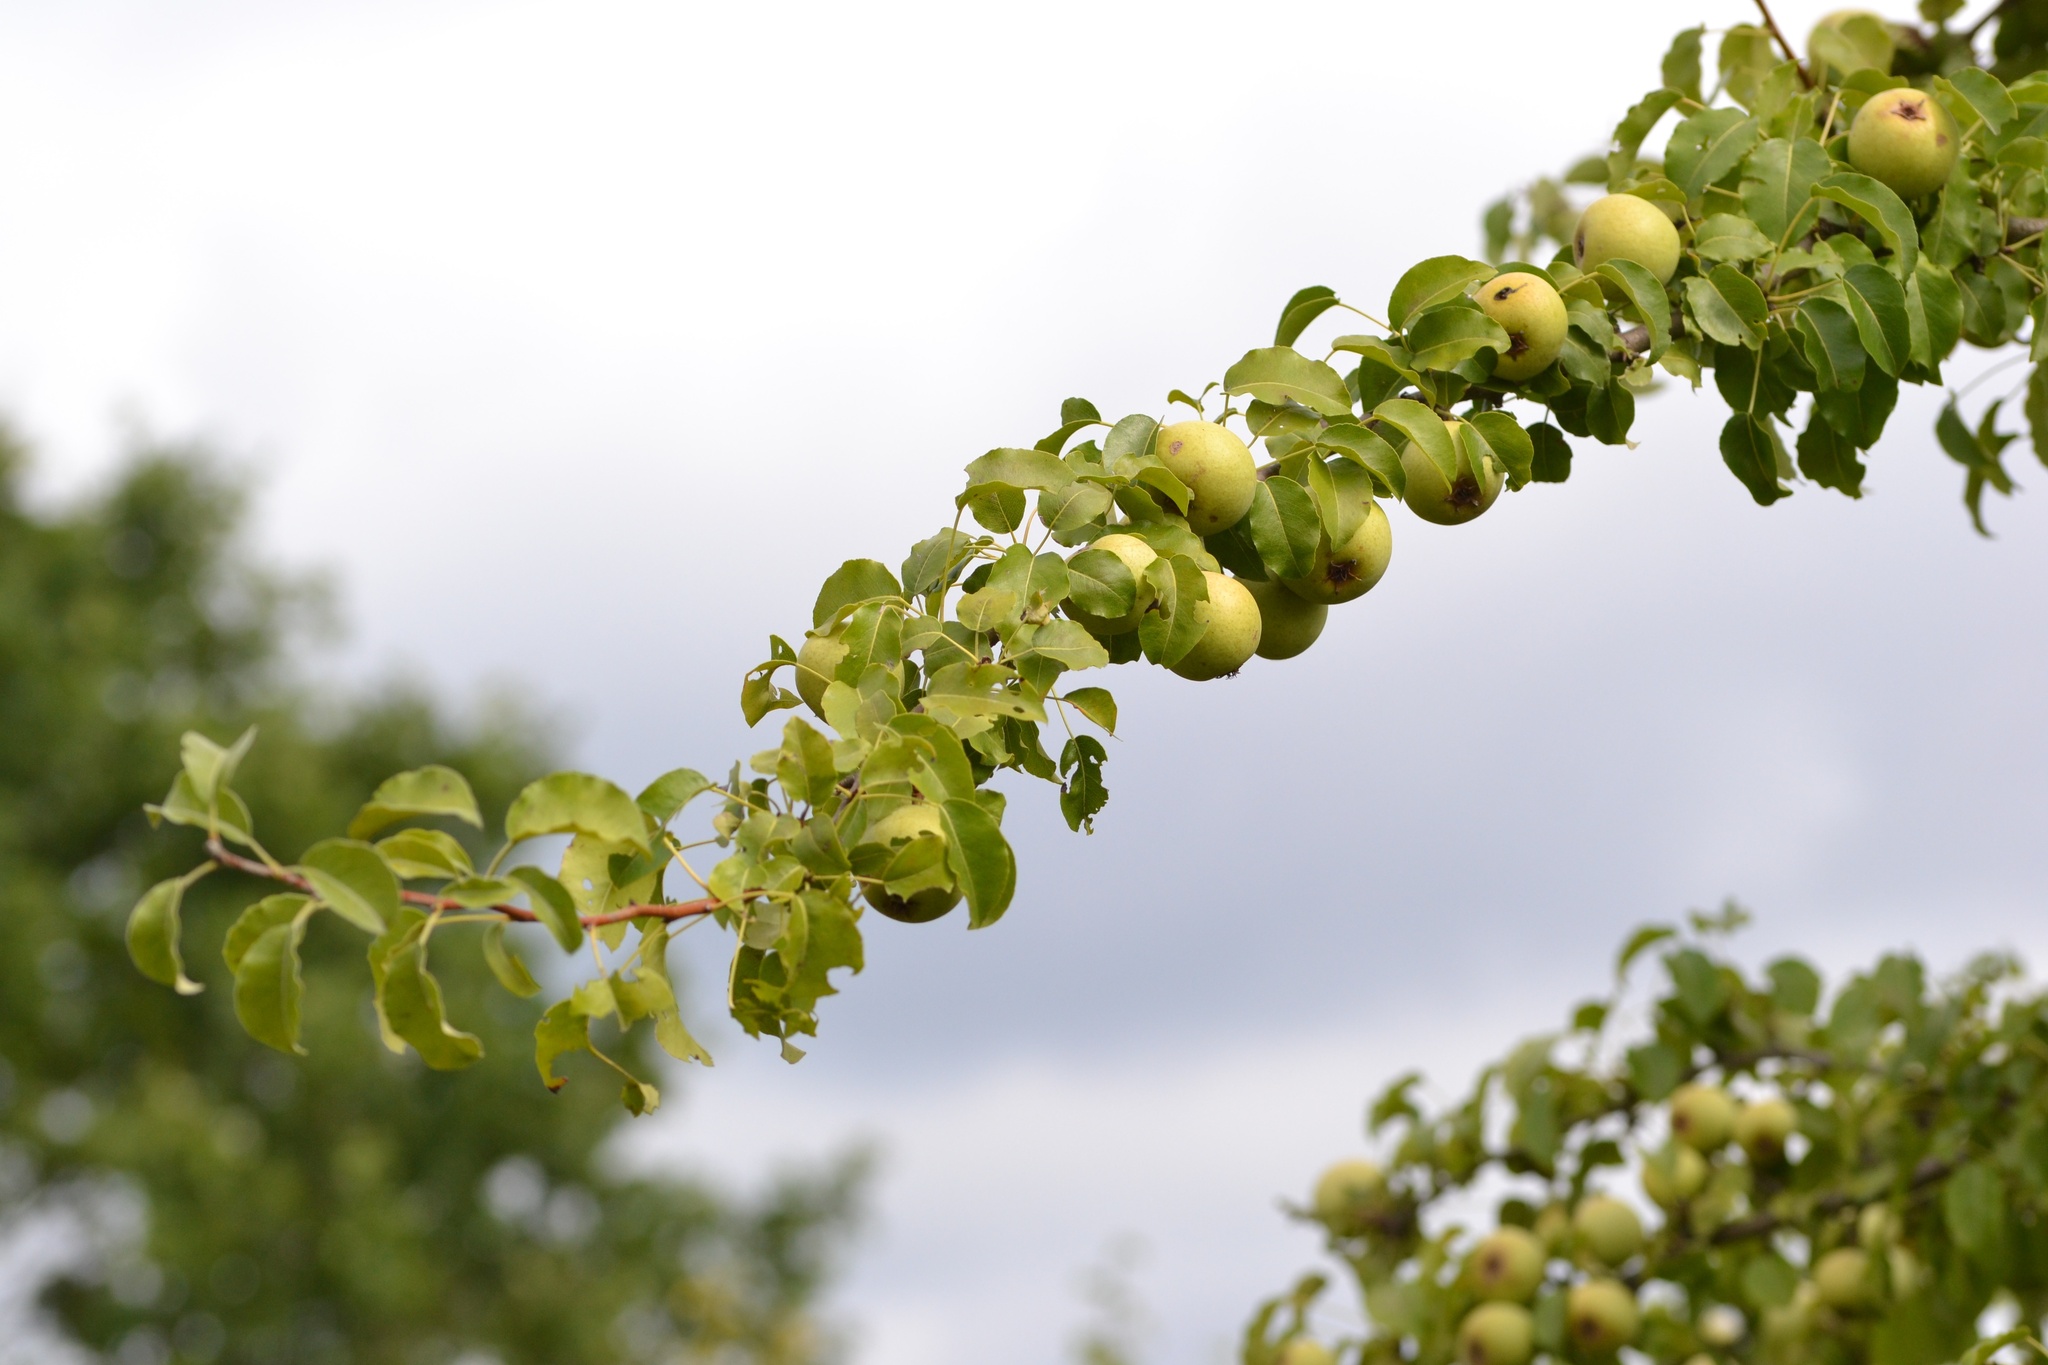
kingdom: Plantae
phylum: Tracheophyta
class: Magnoliopsida
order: Rosales
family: Rosaceae
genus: Pyrus
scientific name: Pyrus communis
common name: Pear
